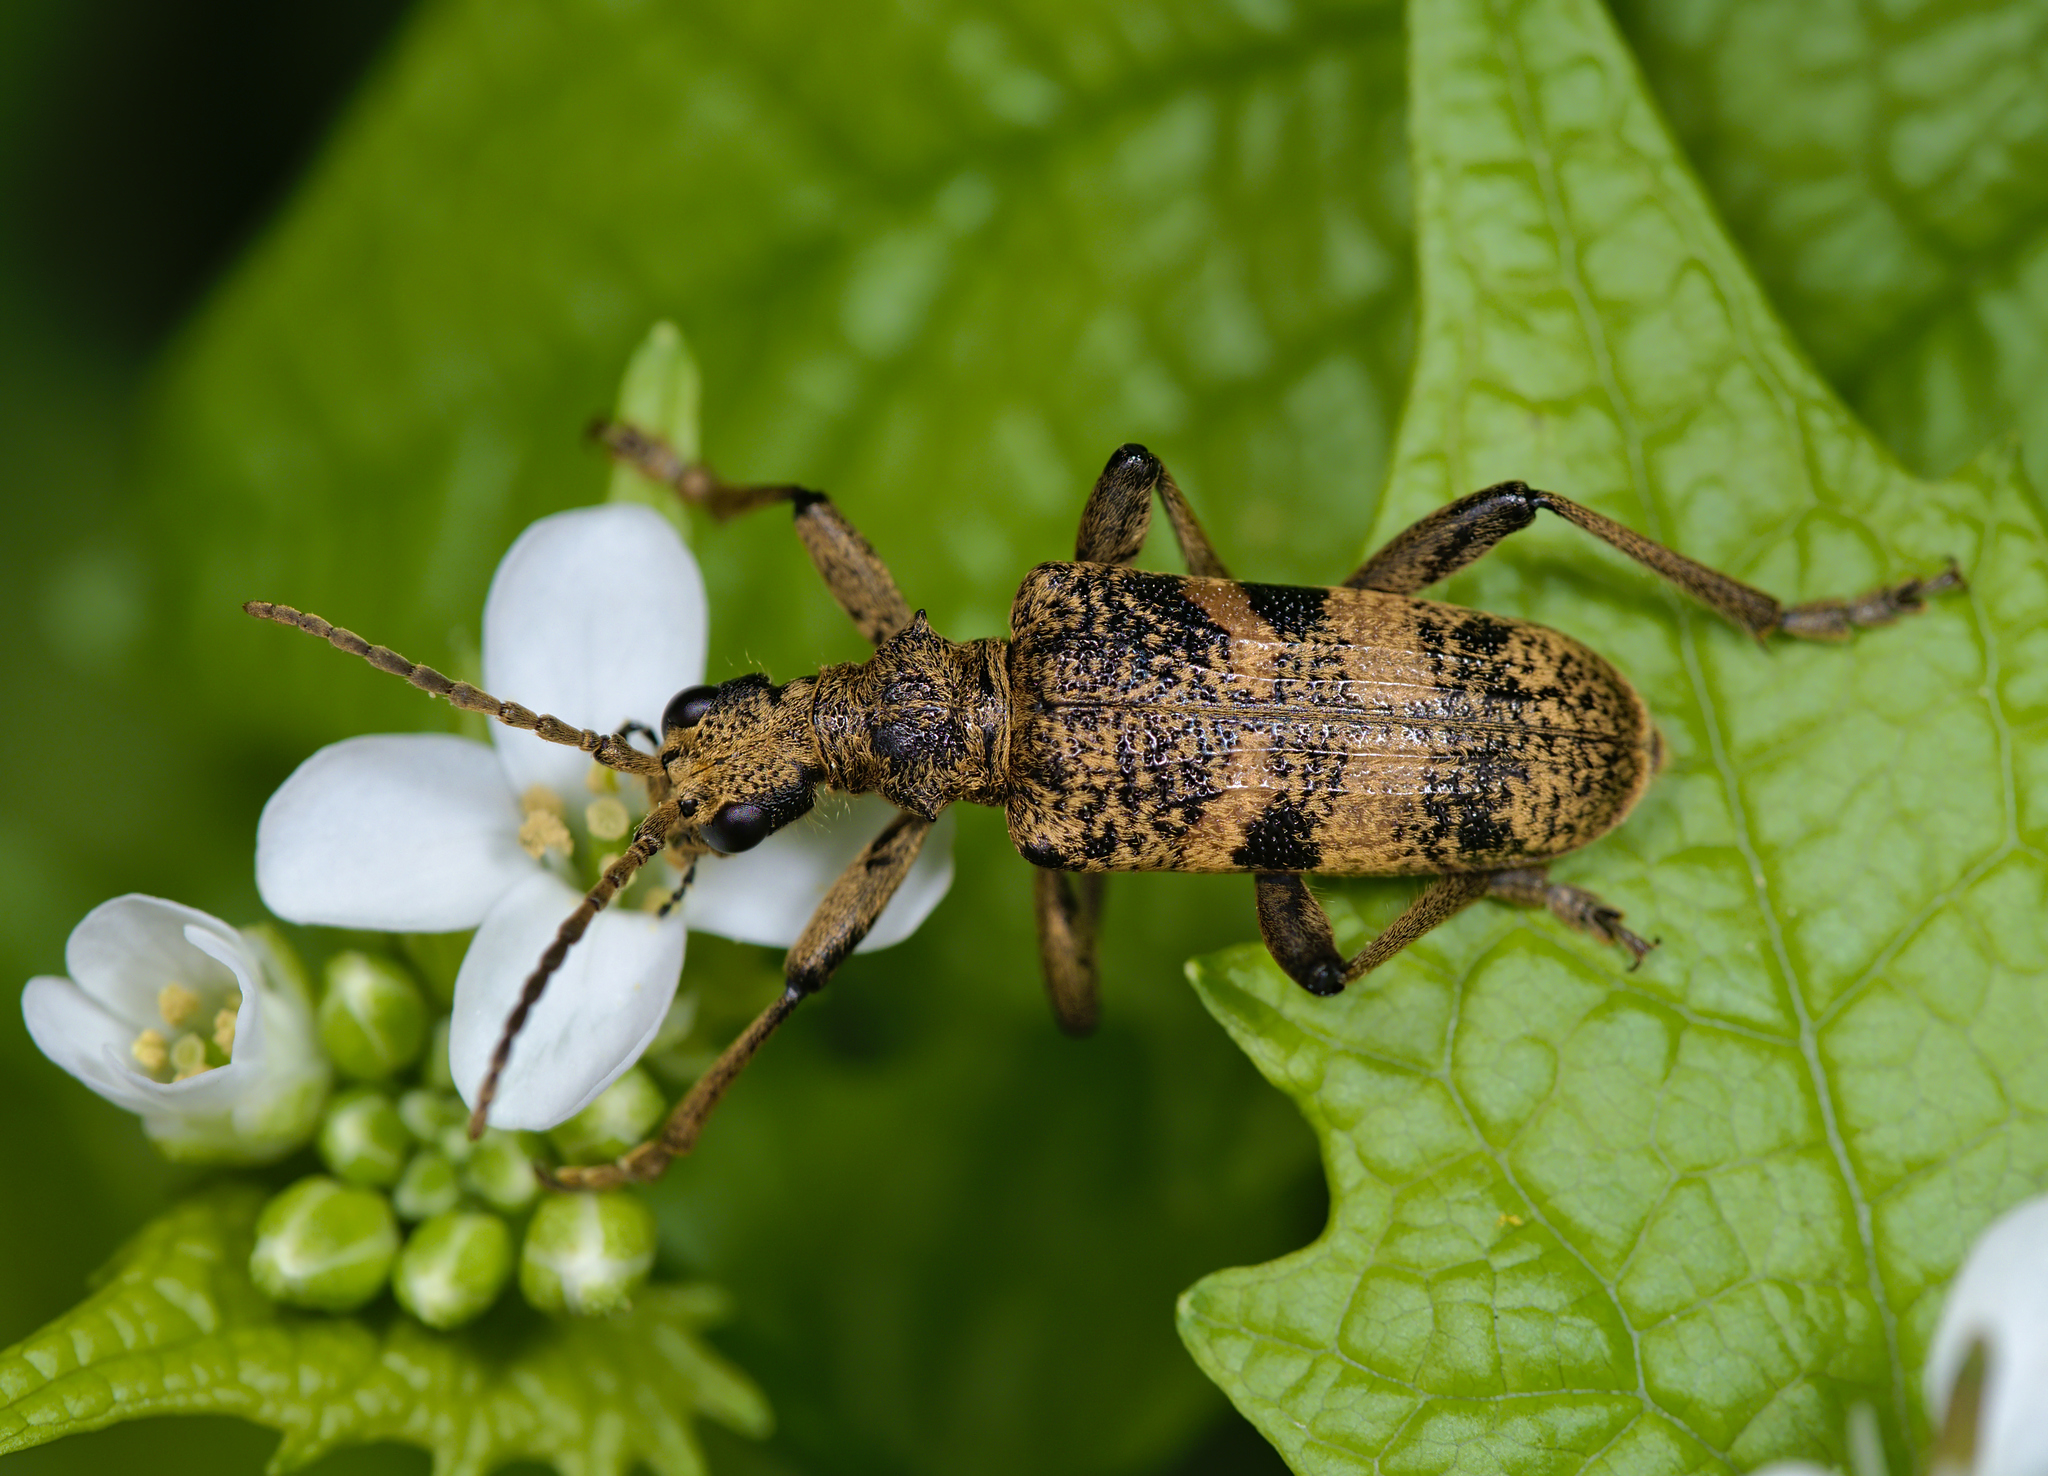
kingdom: Animalia
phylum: Arthropoda
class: Insecta
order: Coleoptera
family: Cerambycidae
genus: Rhagium
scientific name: Rhagium mordax
